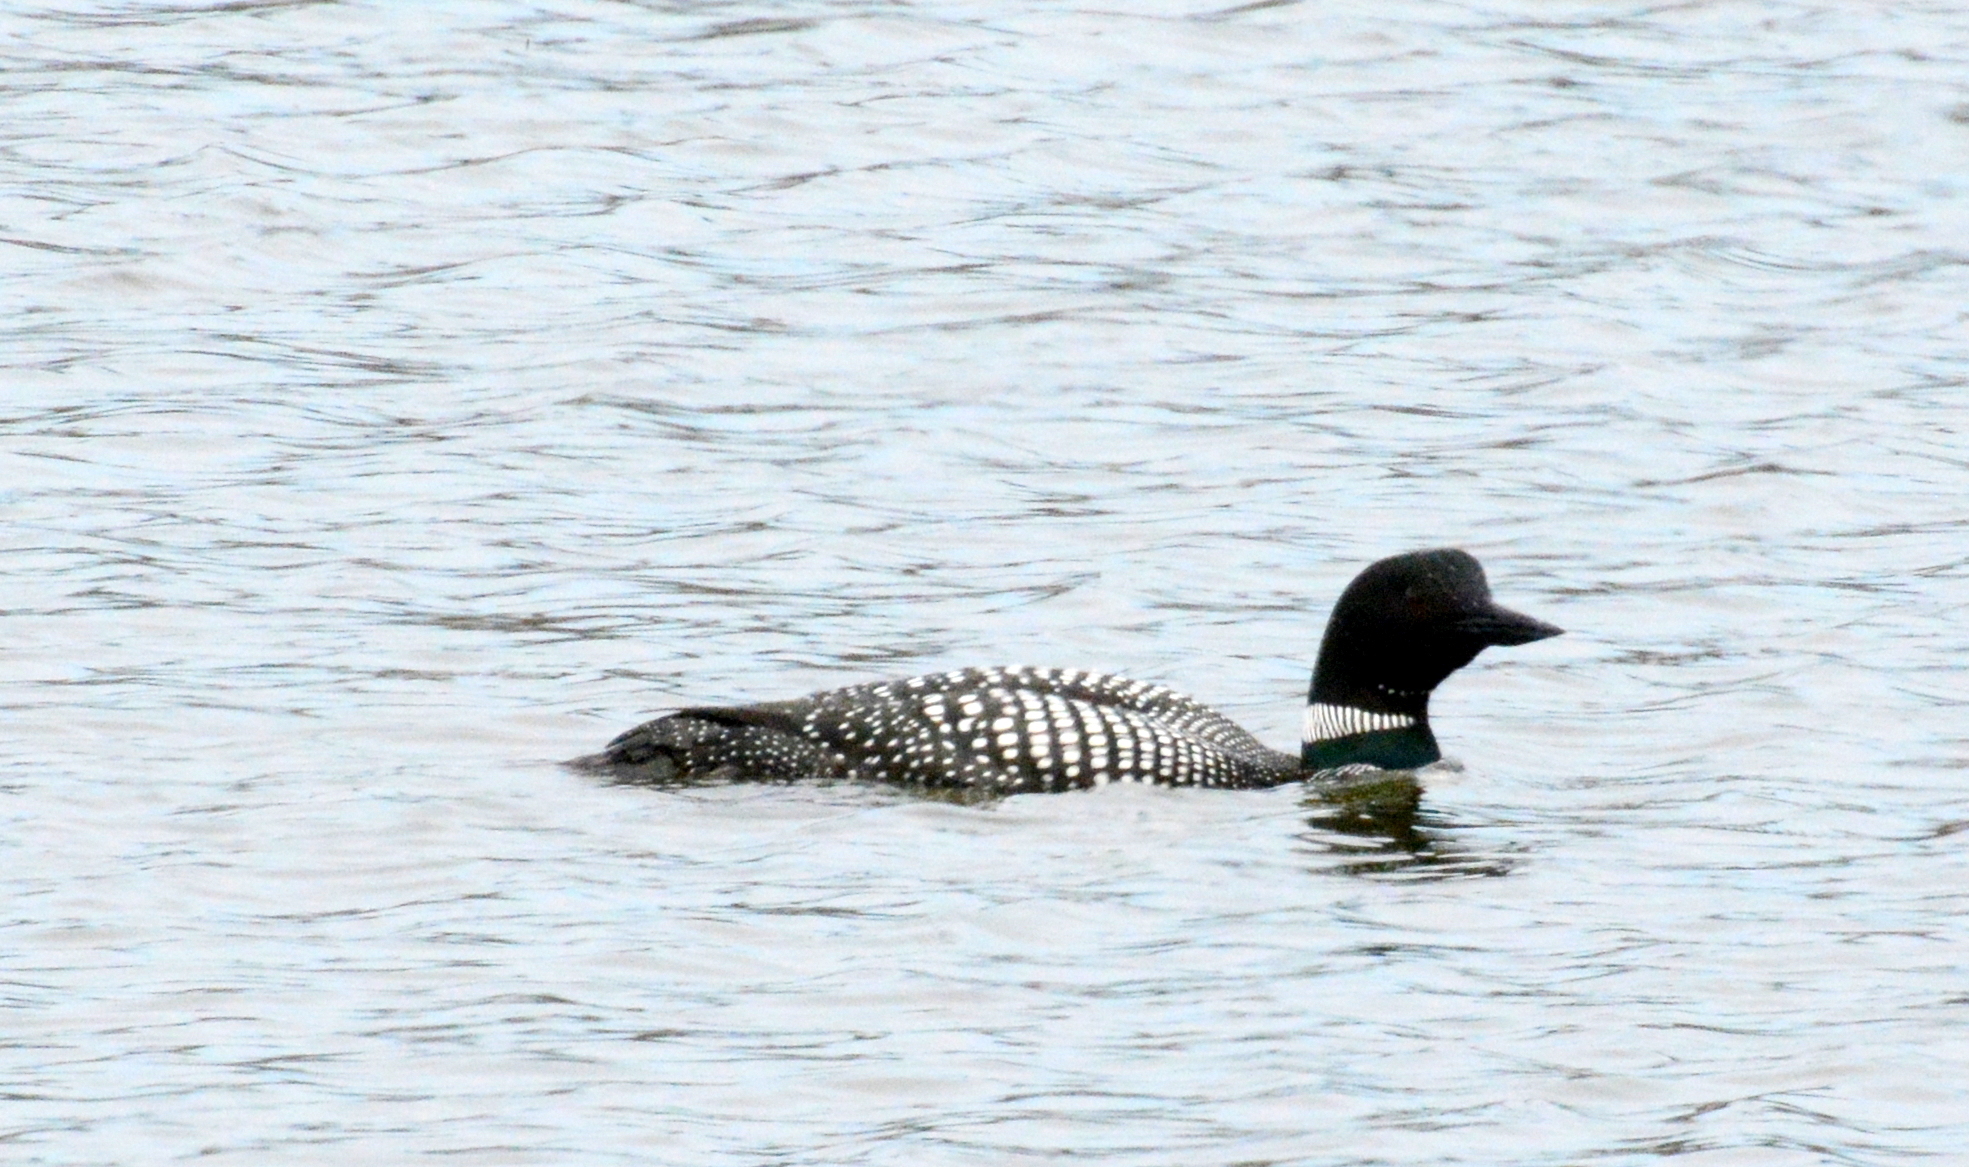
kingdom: Animalia
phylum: Chordata
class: Aves
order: Gaviiformes
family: Gaviidae
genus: Gavia
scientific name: Gavia immer
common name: Common loon
